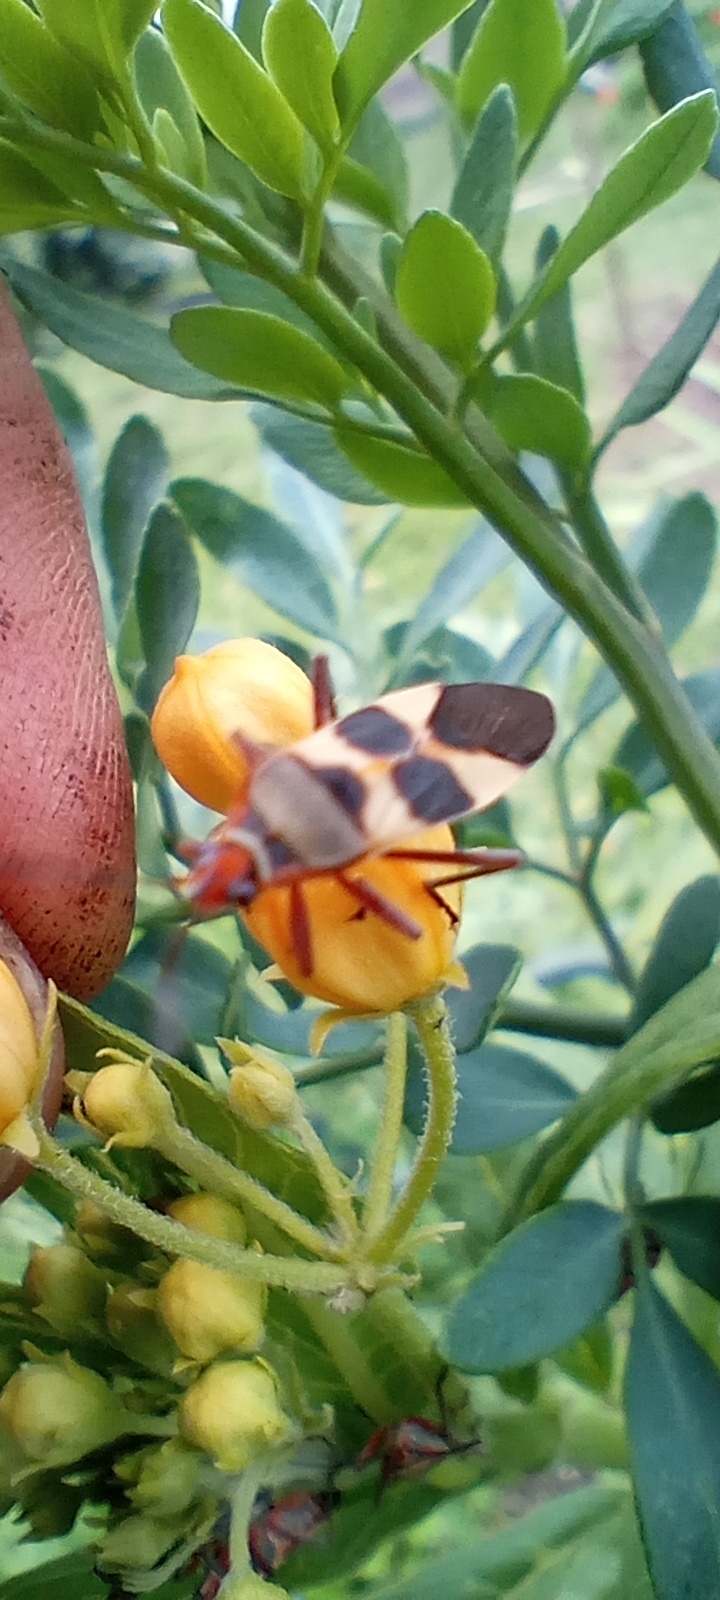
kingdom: Animalia
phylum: Arthropoda
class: Insecta
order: Hemiptera
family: Lygaeidae
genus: Oncopeltus
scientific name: Oncopeltus unifasciatellus
